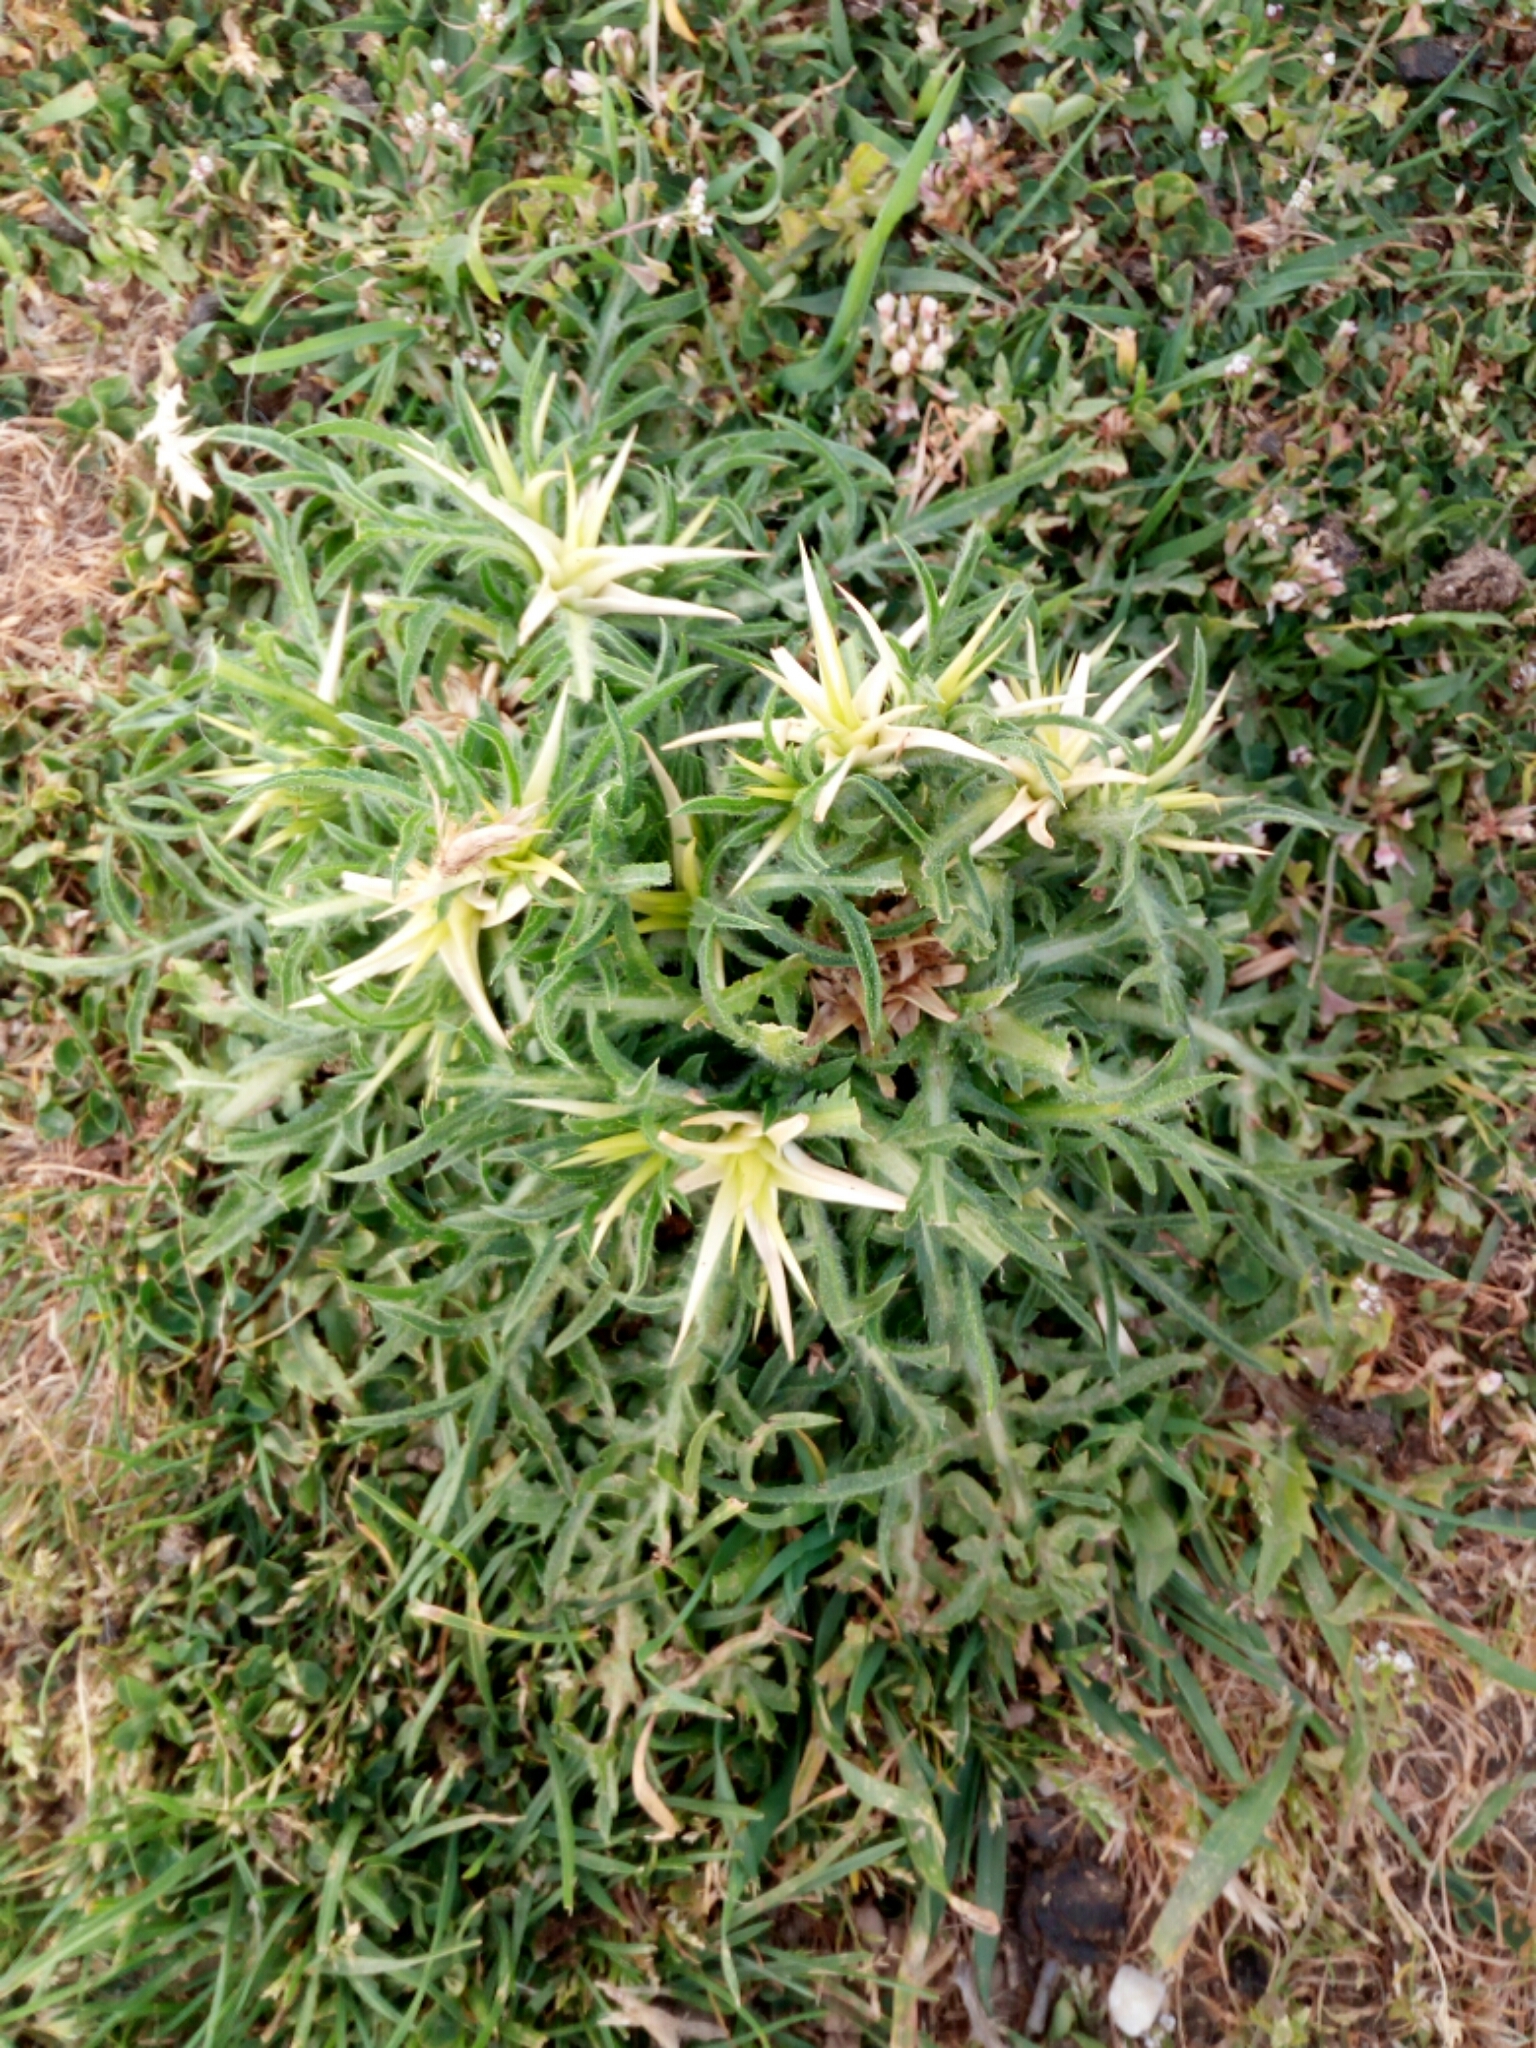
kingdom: Plantae
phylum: Tracheophyta
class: Magnoliopsida
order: Asterales
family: Asteraceae
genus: Centaurea
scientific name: Centaurea calcitrapa
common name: Red star-thistle
